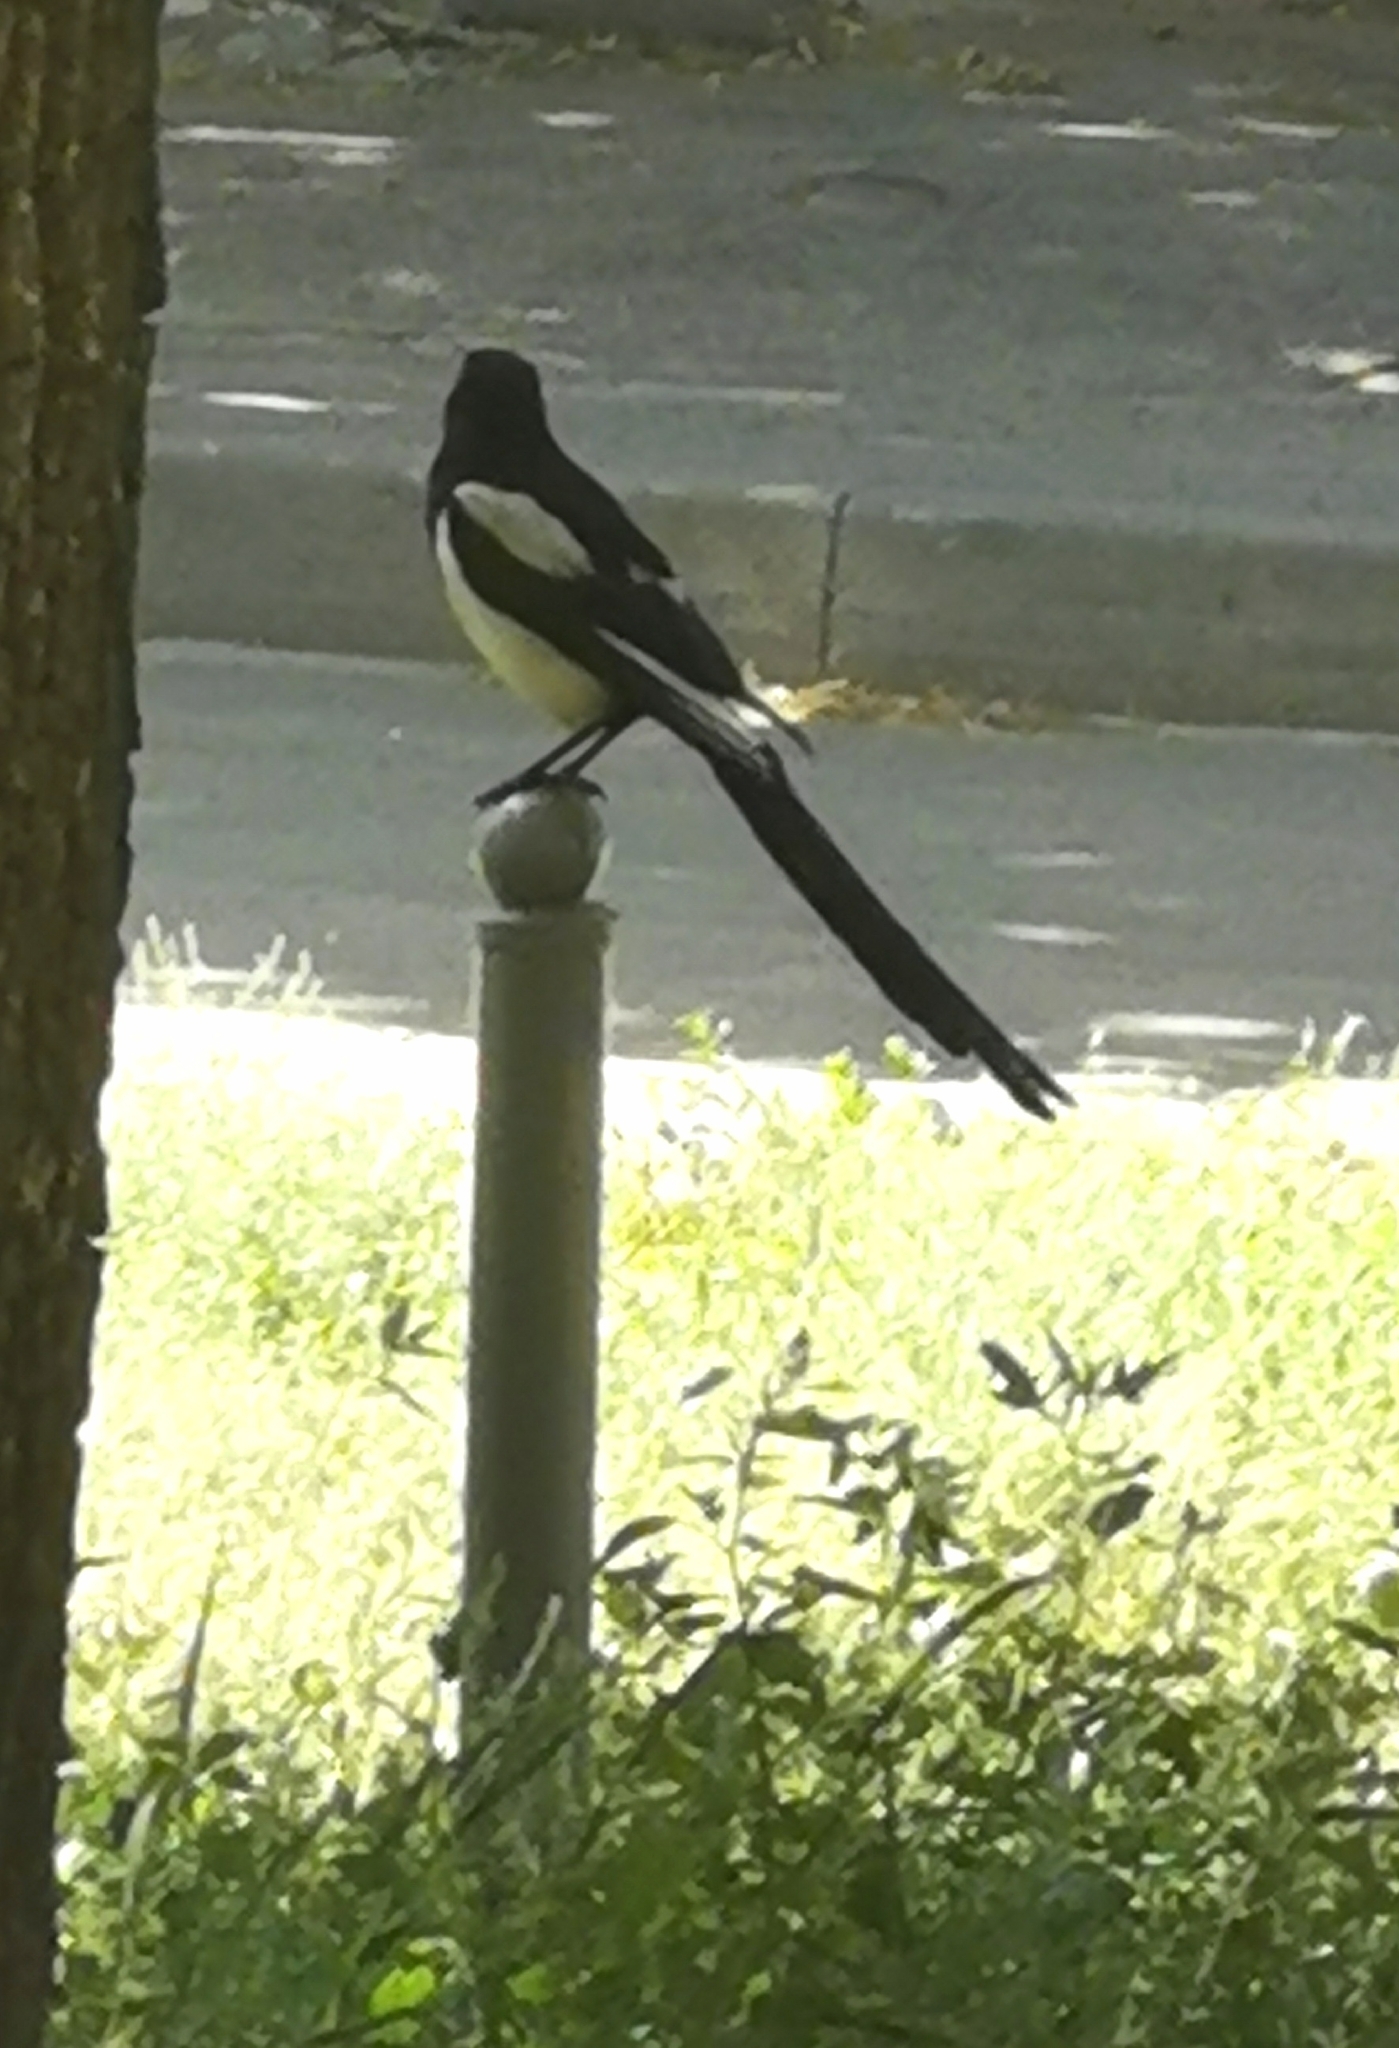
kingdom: Animalia
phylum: Chordata
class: Aves
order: Passeriformes
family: Corvidae
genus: Pica
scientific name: Pica pica
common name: Eurasian magpie
